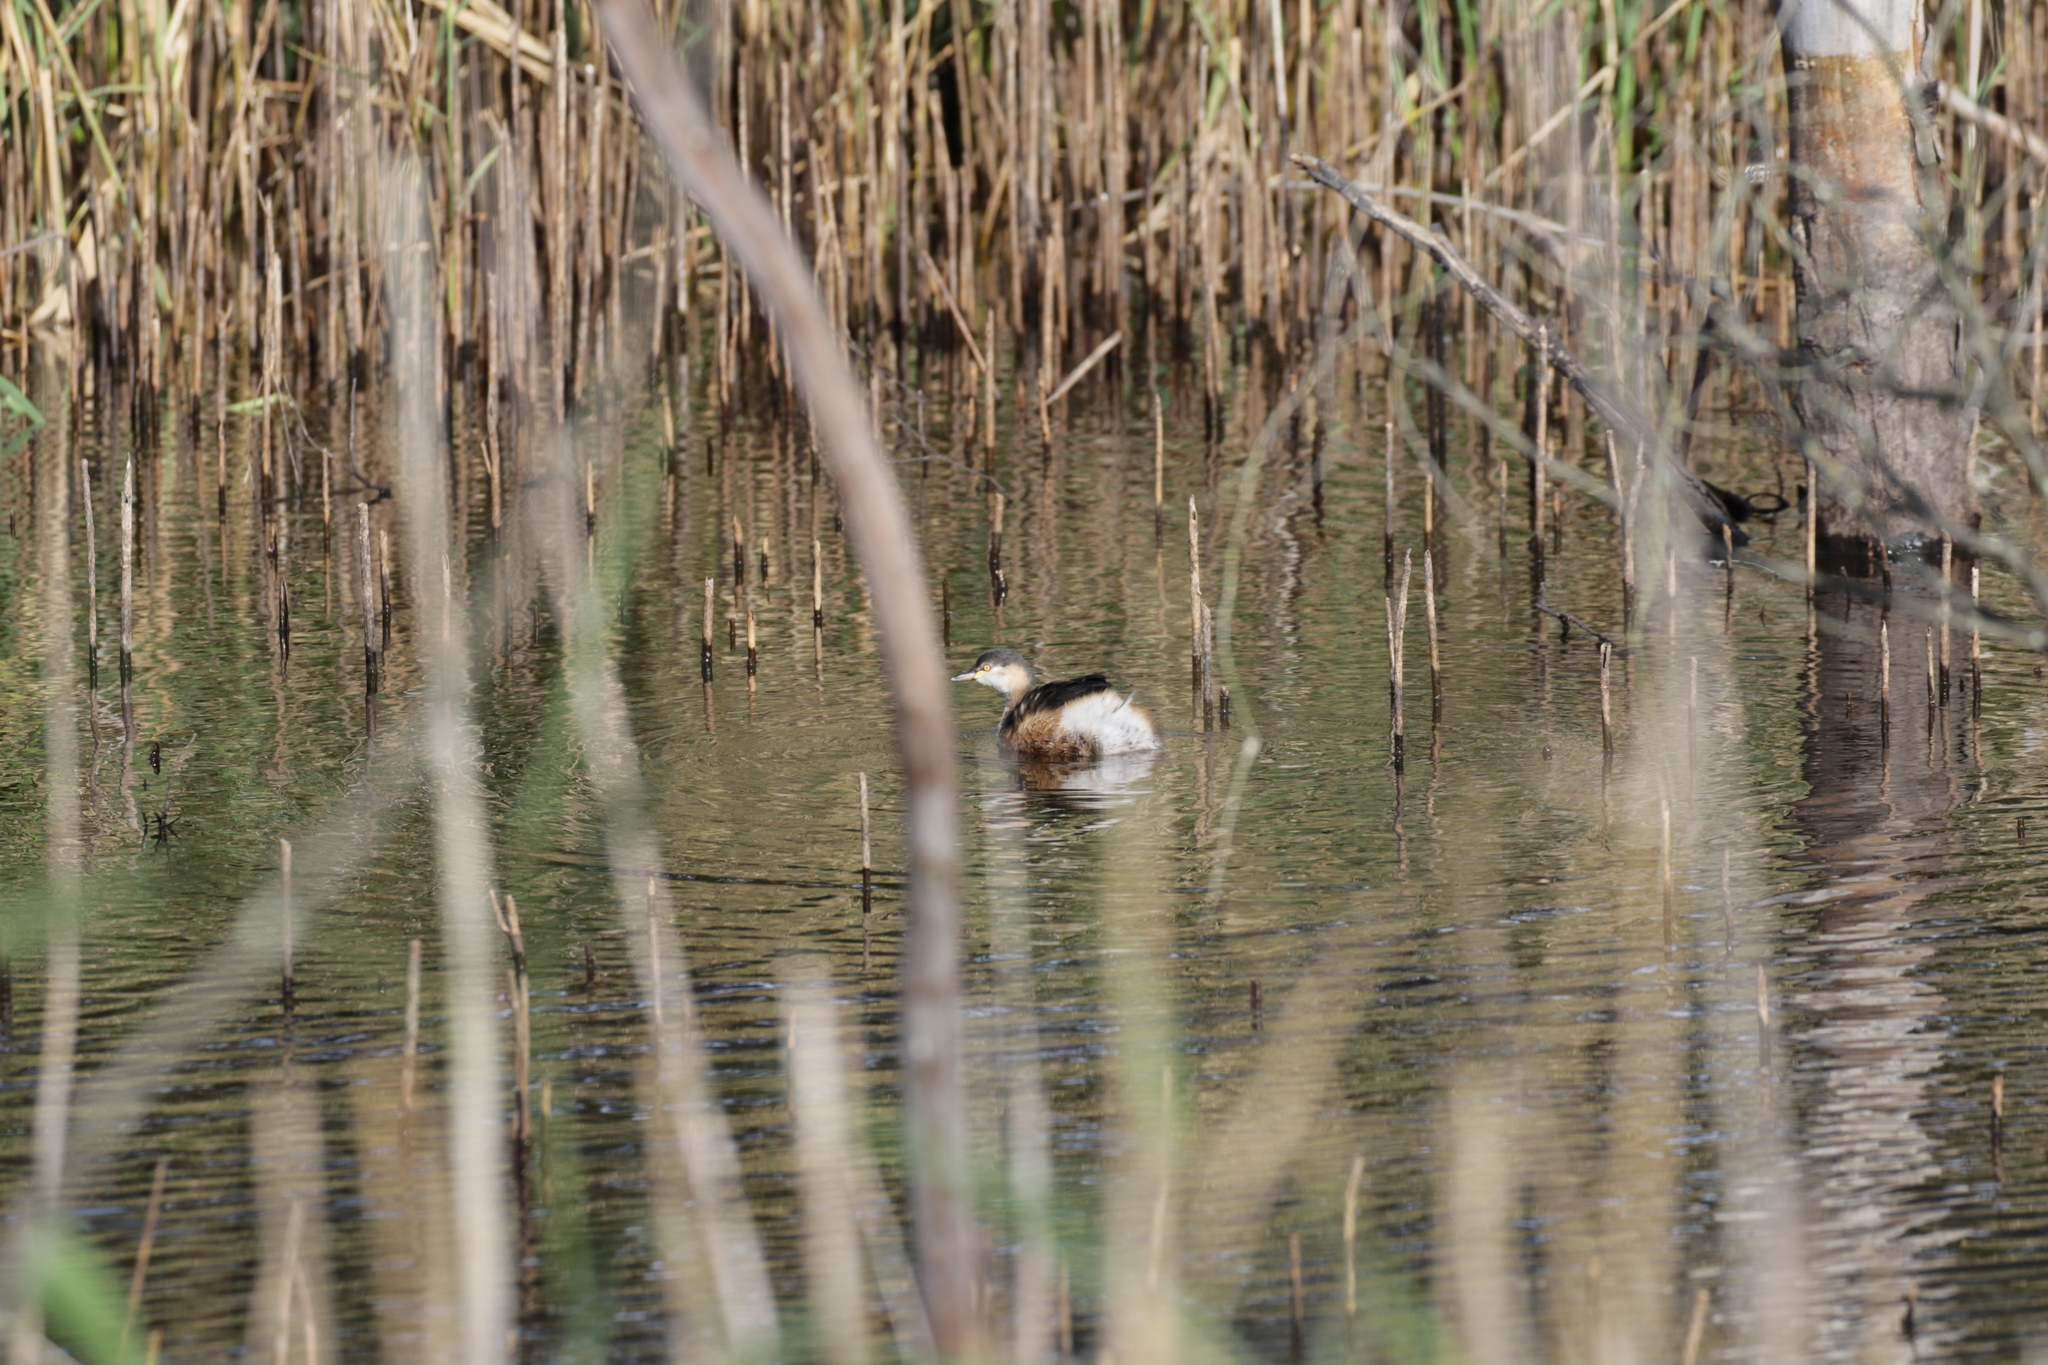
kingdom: Animalia
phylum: Chordata
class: Aves
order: Podicipediformes
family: Podicipedidae
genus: Tachybaptus
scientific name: Tachybaptus novaehollandiae
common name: Australasian grebe
